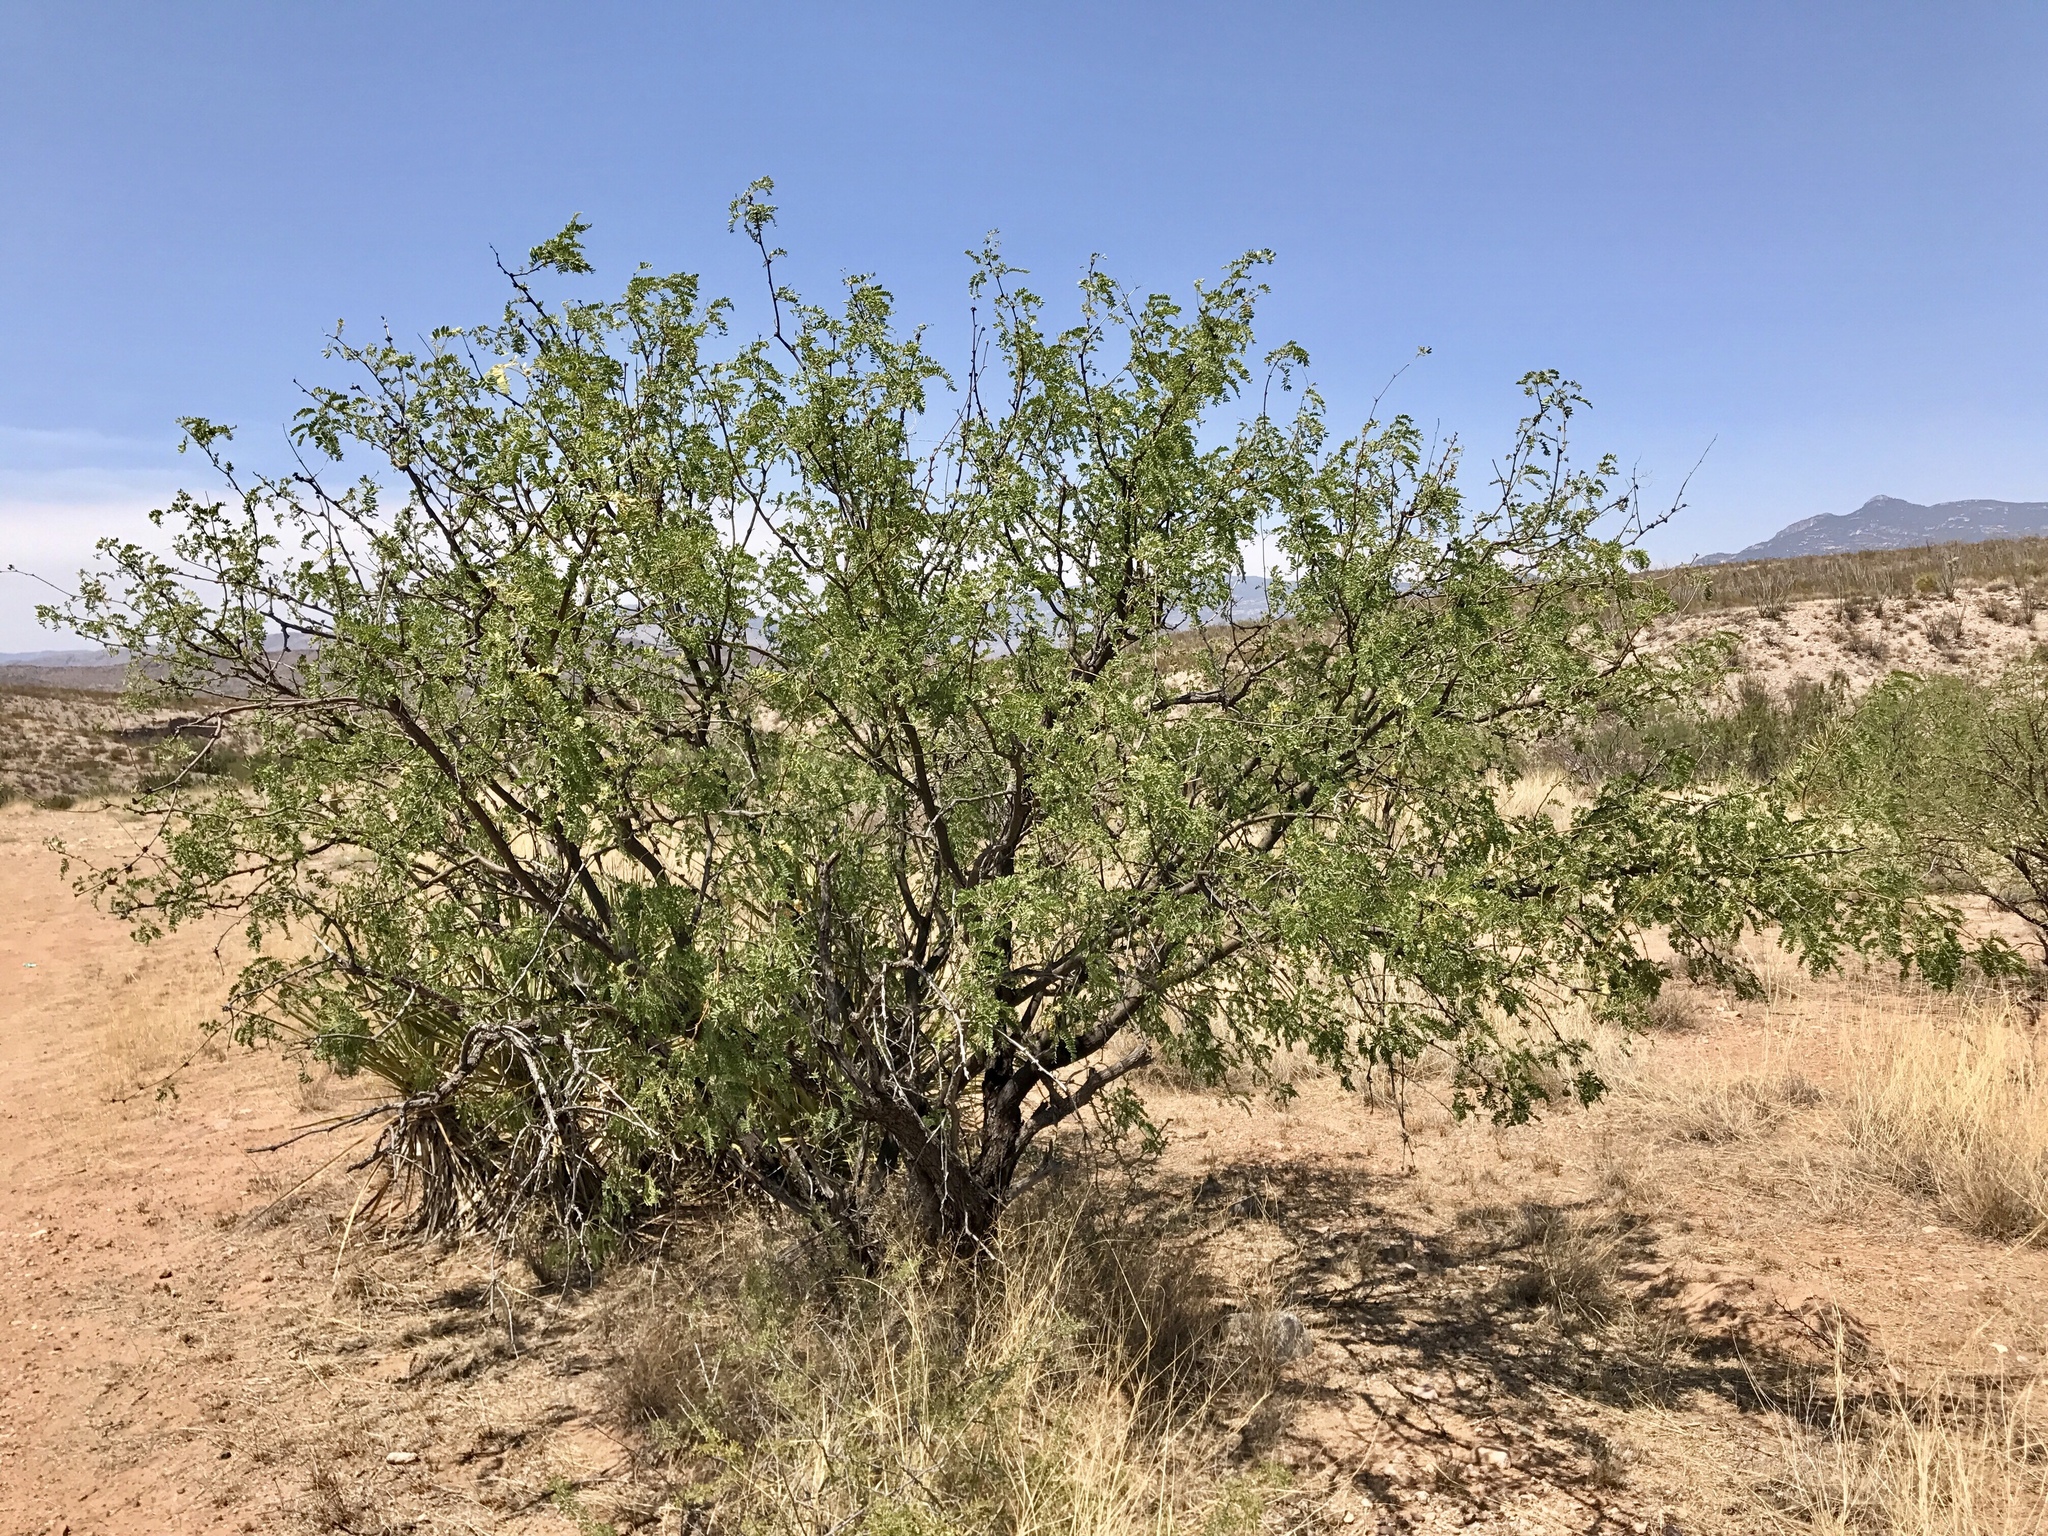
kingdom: Plantae
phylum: Tracheophyta
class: Magnoliopsida
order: Fabales
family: Fabaceae
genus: Prosopis
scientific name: Prosopis velutina
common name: Velvet mesquite
